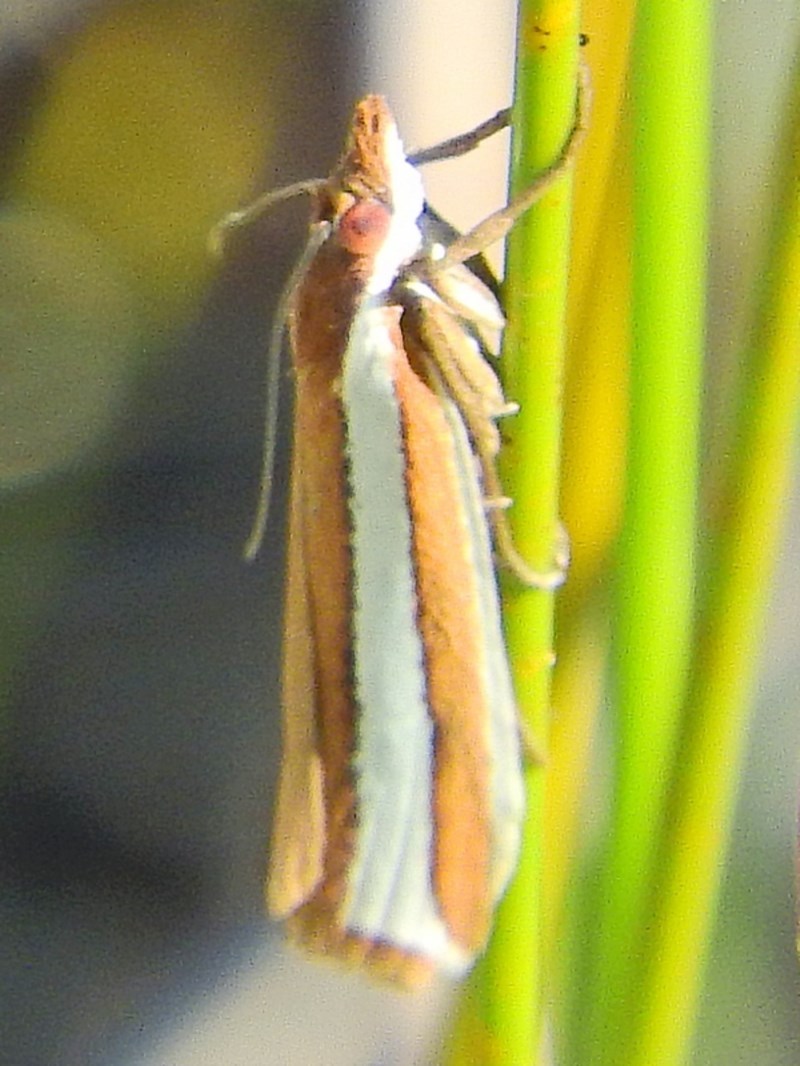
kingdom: Animalia
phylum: Arthropoda
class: Insecta
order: Lepidoptera
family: Crambidae
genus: Corynophora
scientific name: Corynophora lativittalis
